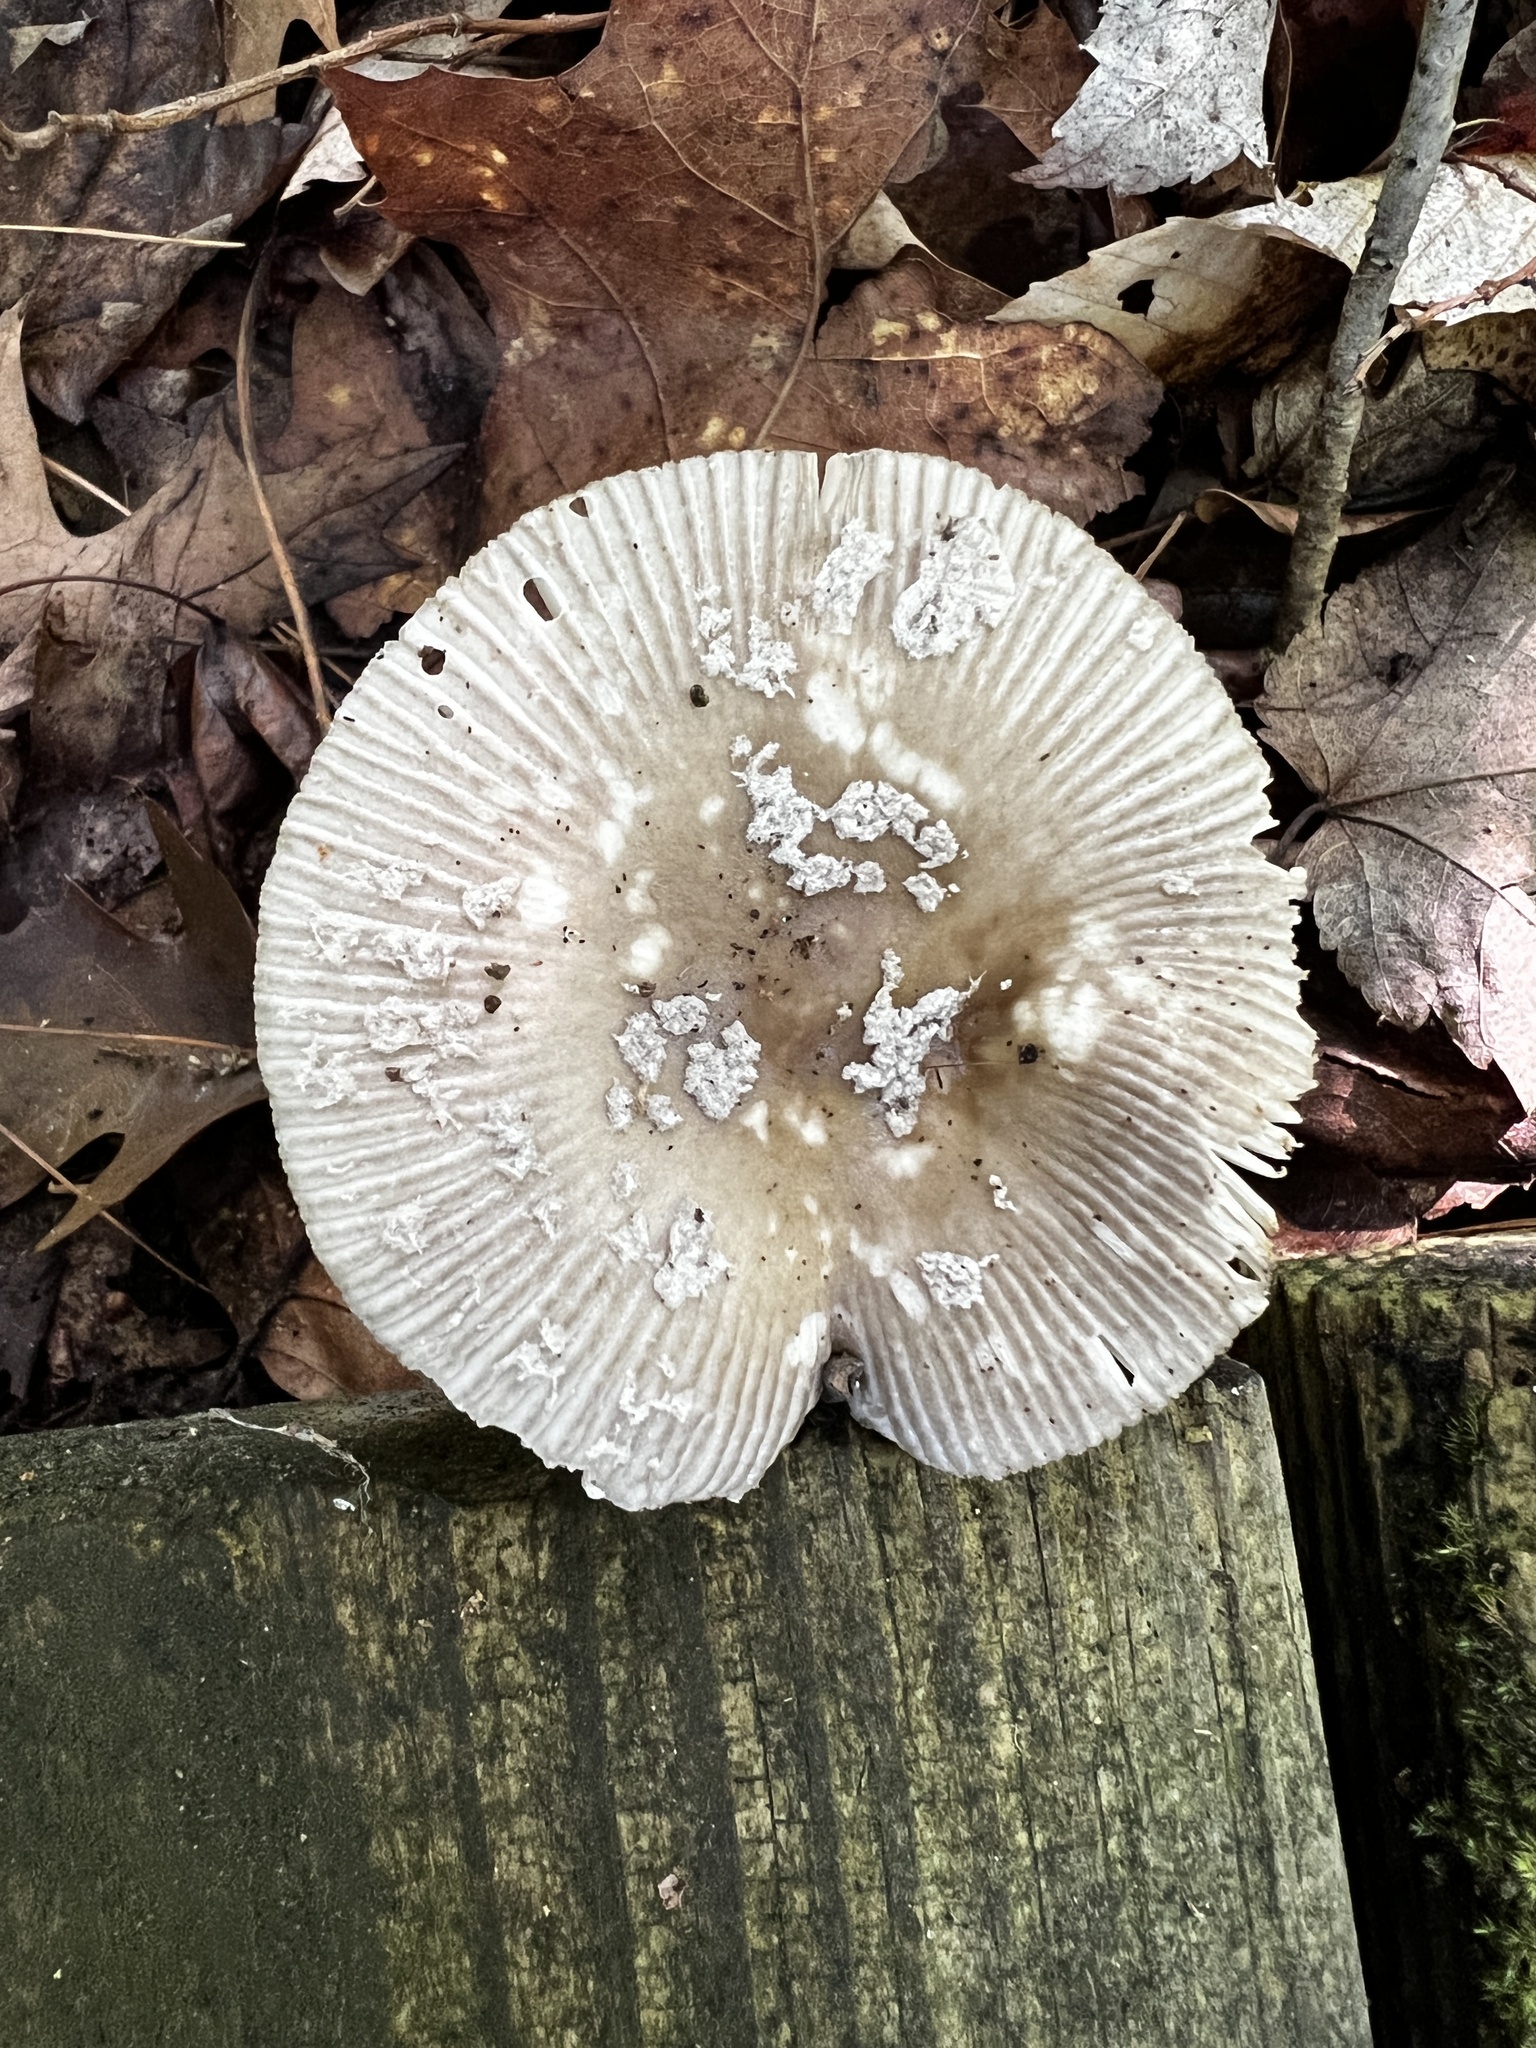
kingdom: Fungi
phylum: Basidiomycota
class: Agaricomycetes
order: Agaricales
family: Amanitaceae
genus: Amanita
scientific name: Amanita rhacopus
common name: Shaggy legged ringless amanita
